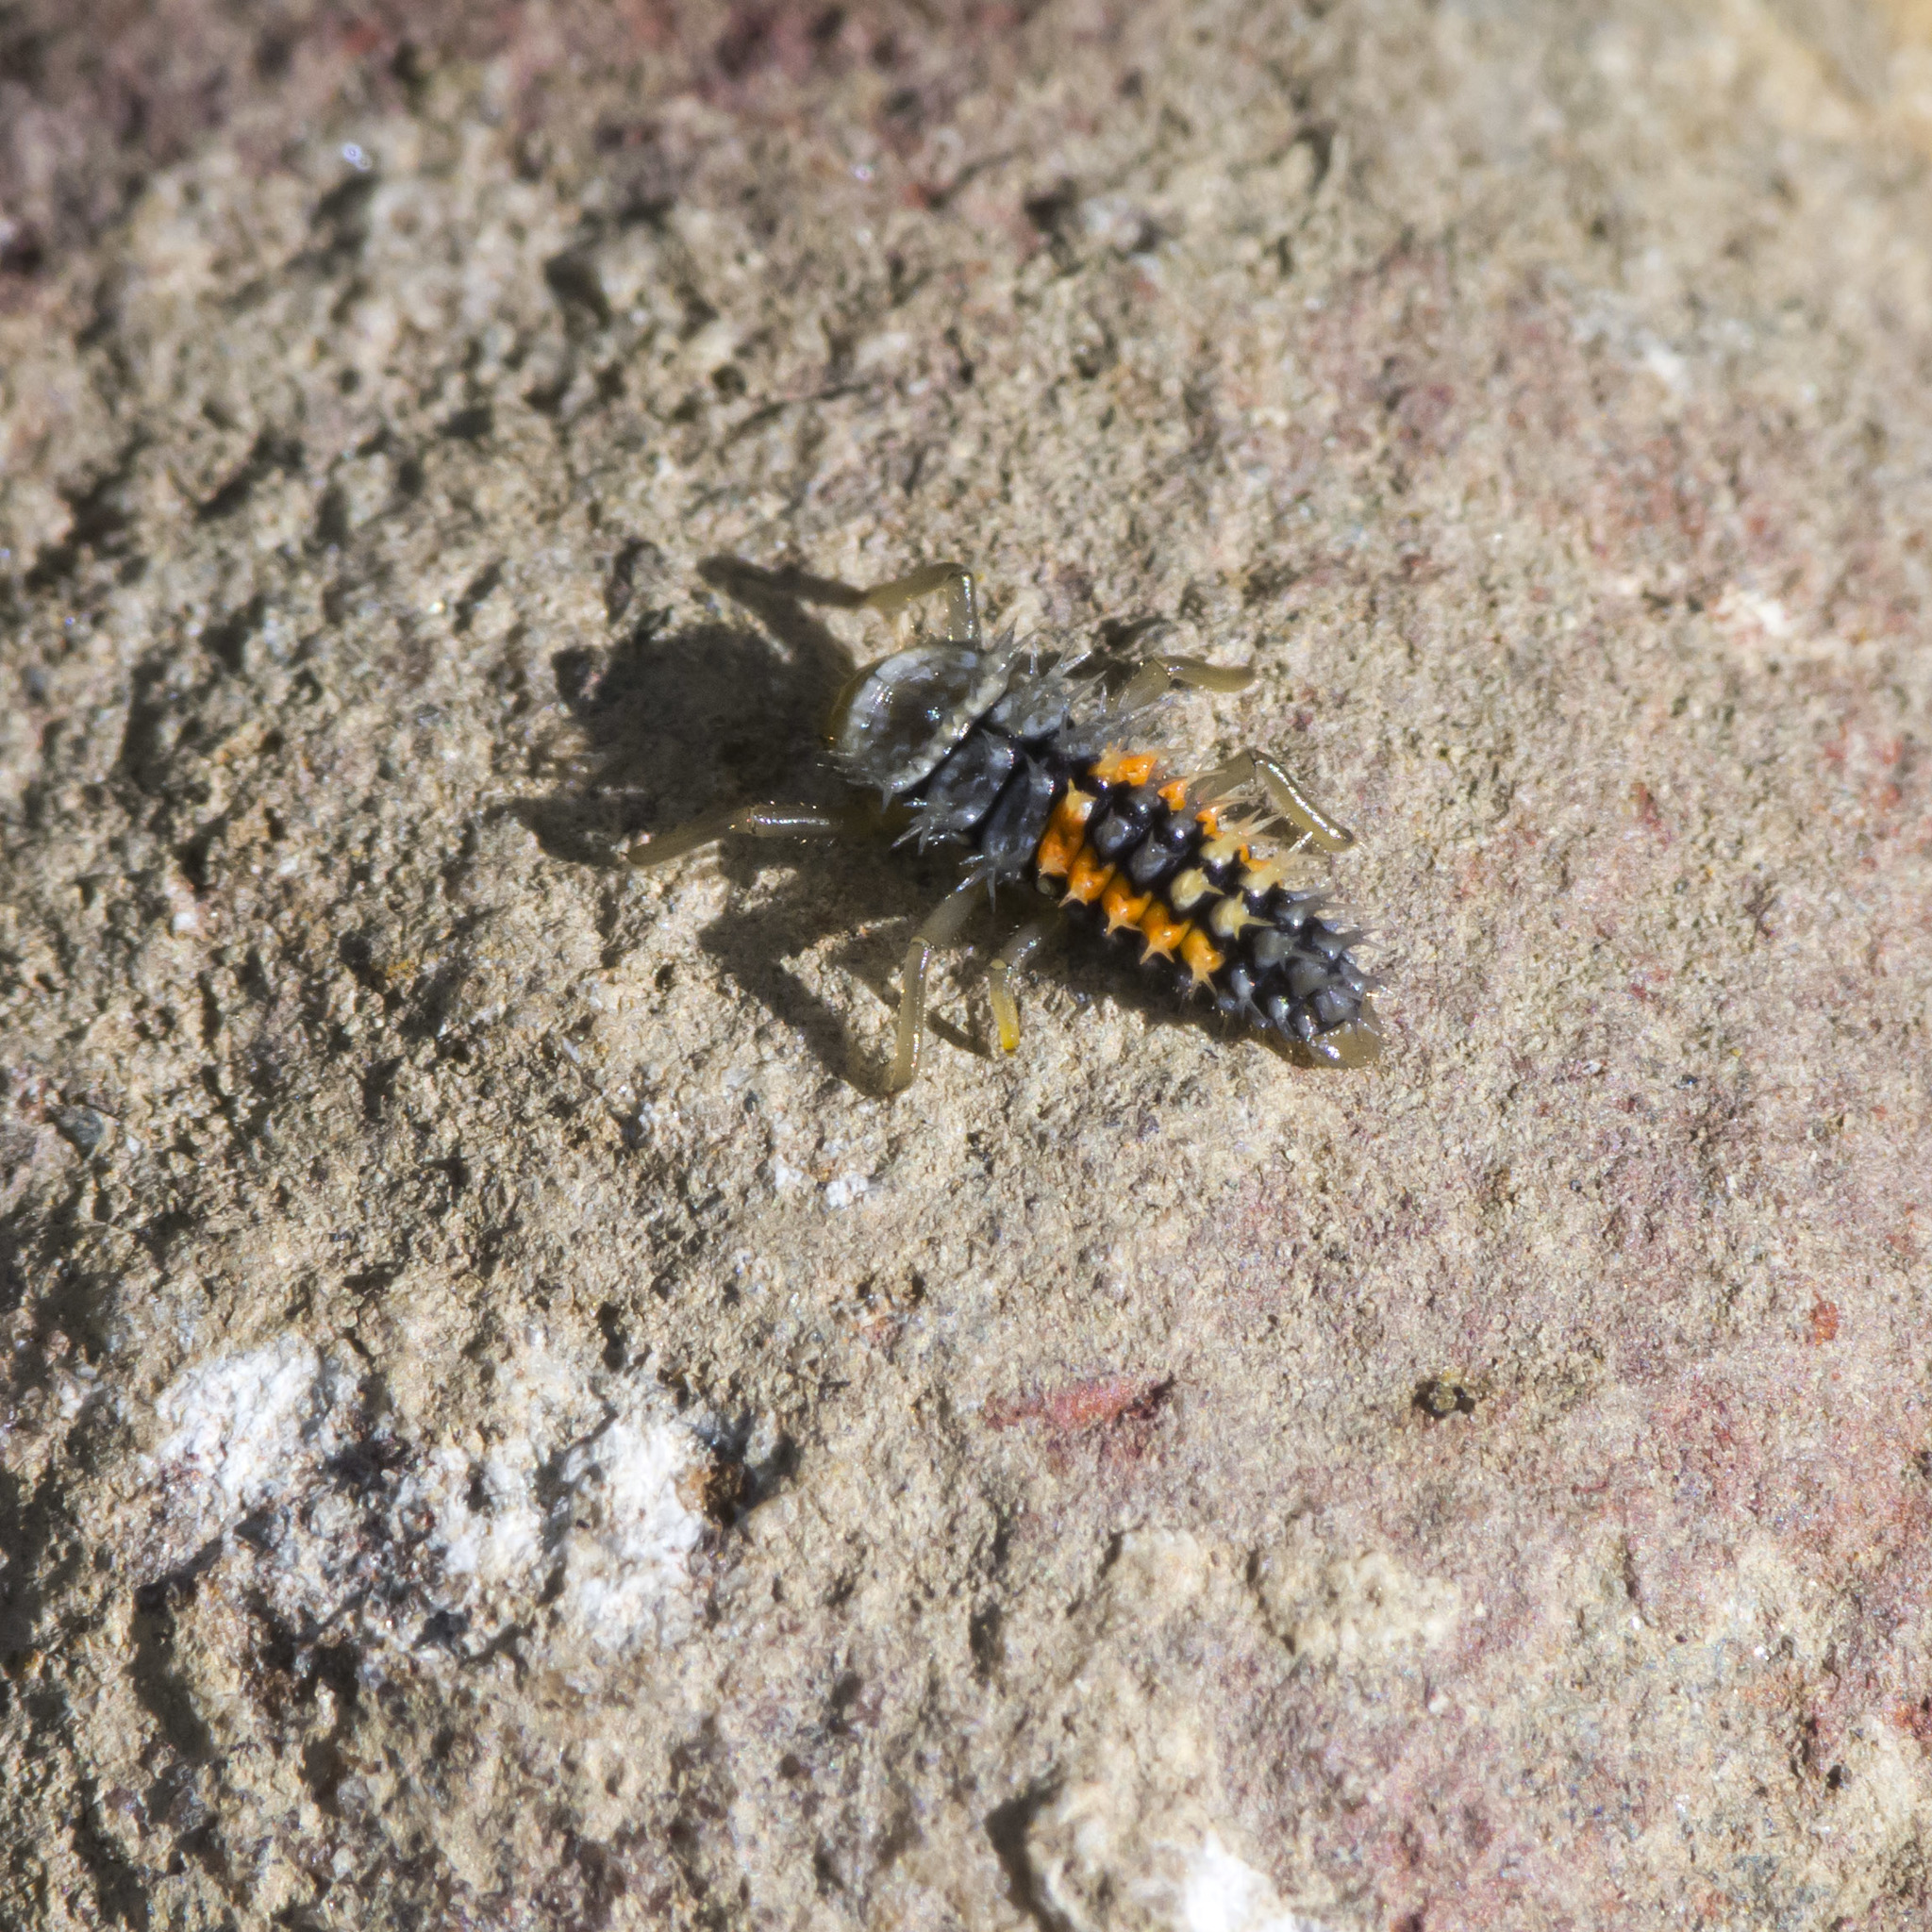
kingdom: Animalia
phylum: Arthropoda
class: Insecta
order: Coleoptera
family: Coccinellidae
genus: Harmonia
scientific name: Harmonia axyridis
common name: Harlequin ladybird
